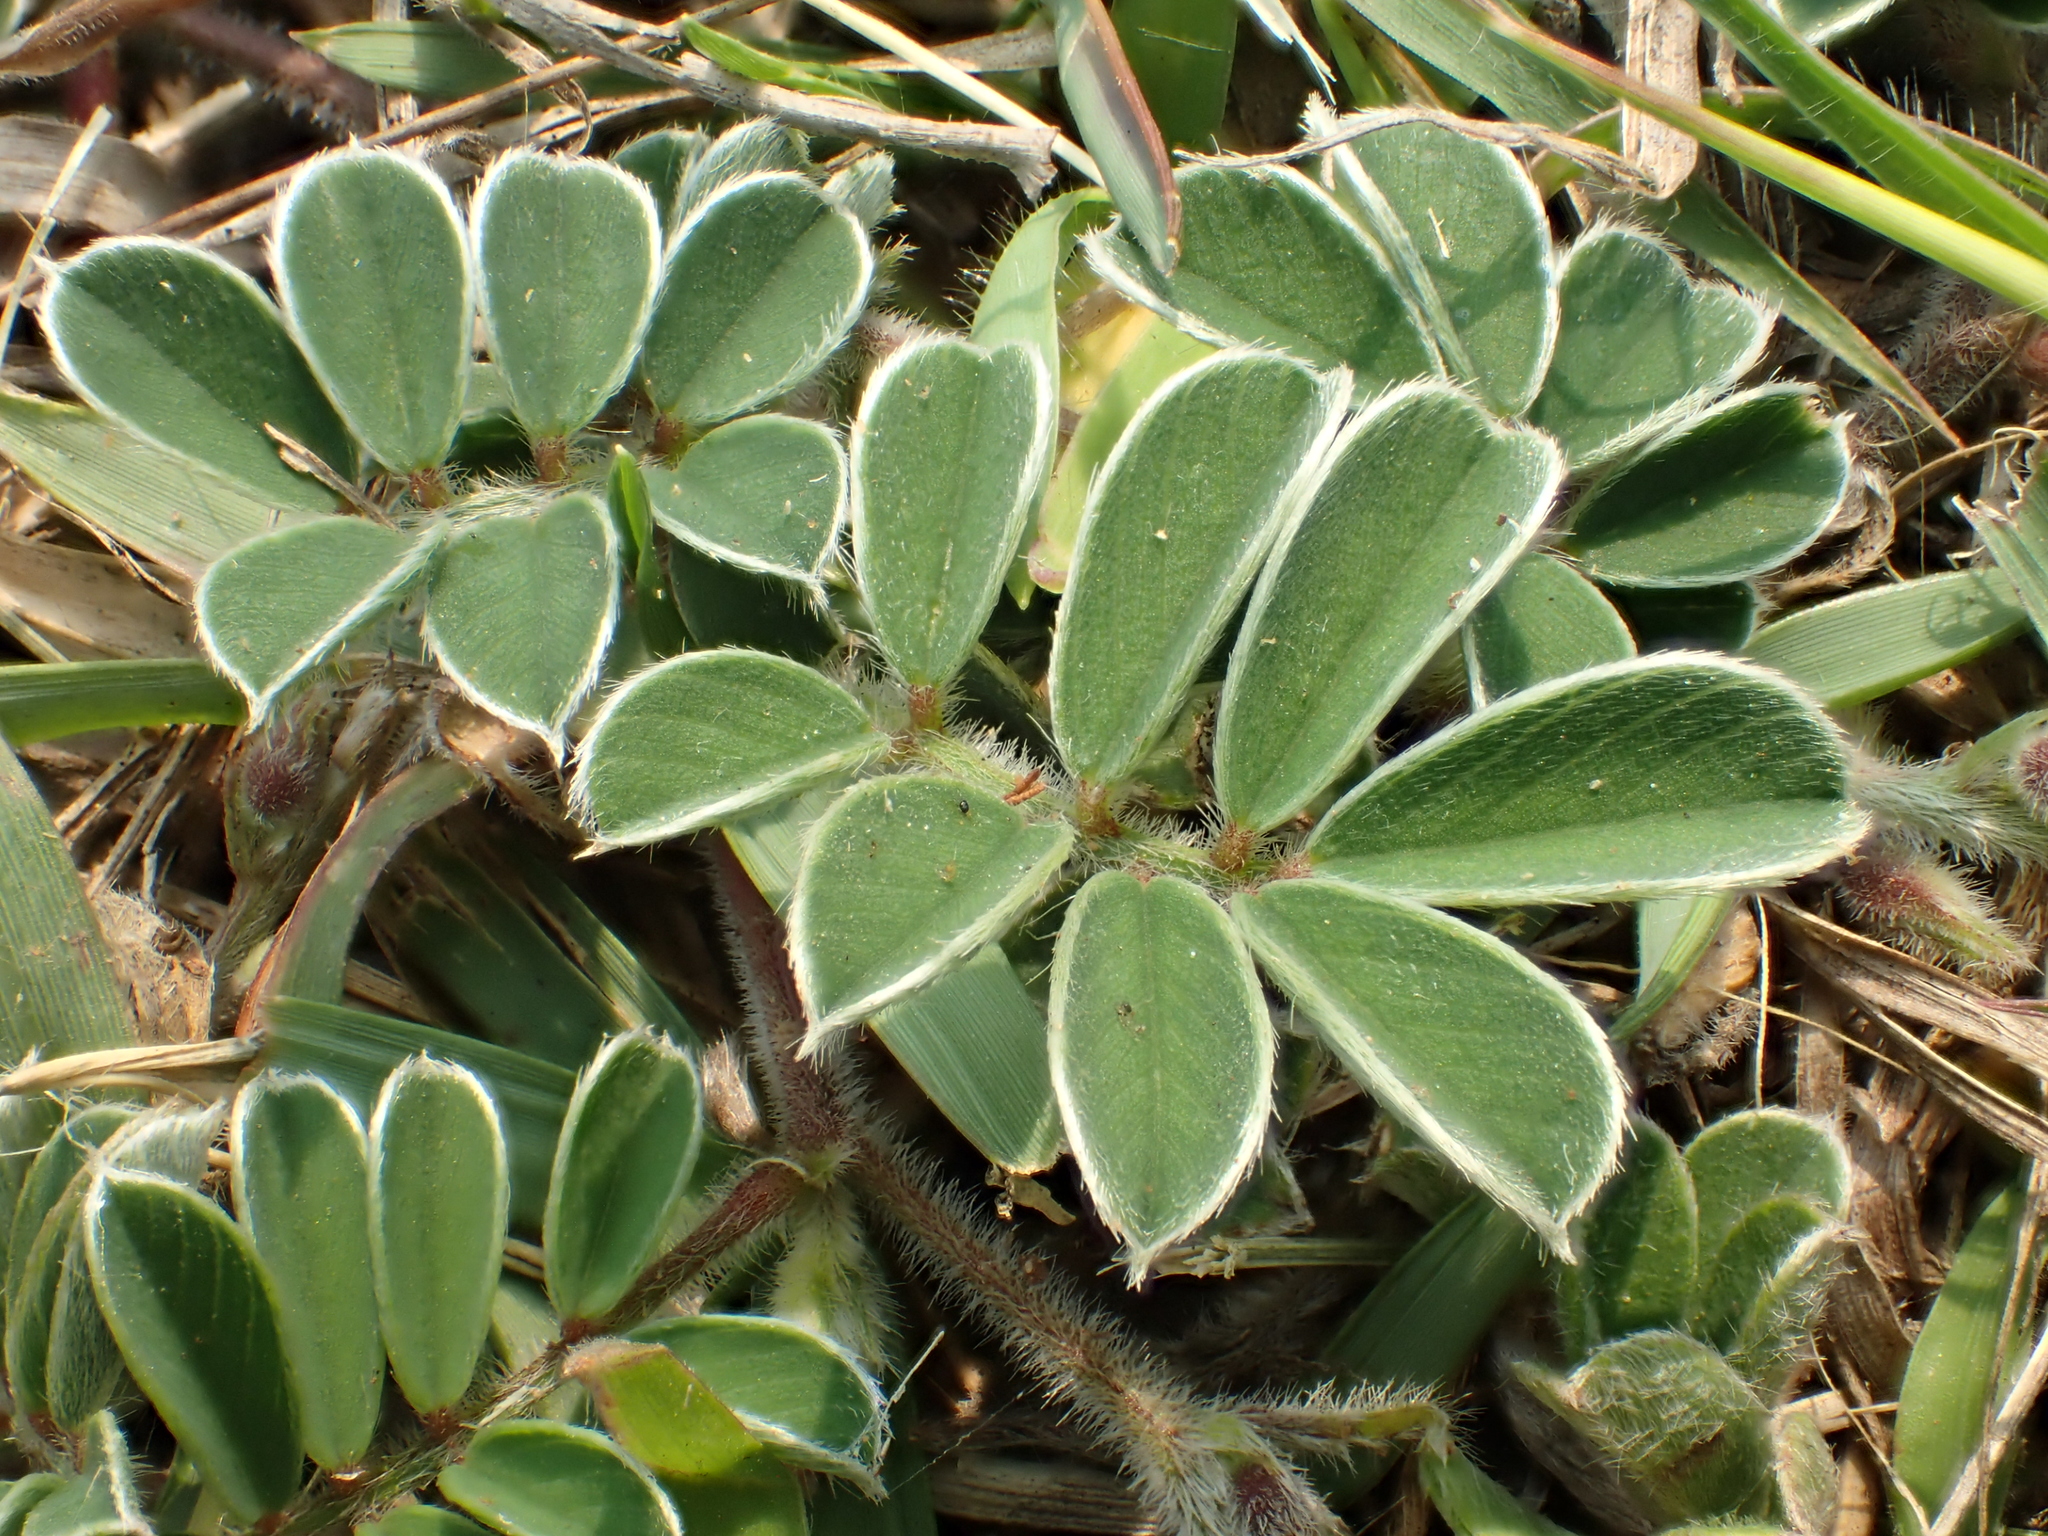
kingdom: Plantae
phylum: Tracheophyta
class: Magnoliopsida
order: Fabales
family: Fabaceae
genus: Tephrosia
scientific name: Tephrosia obovata
